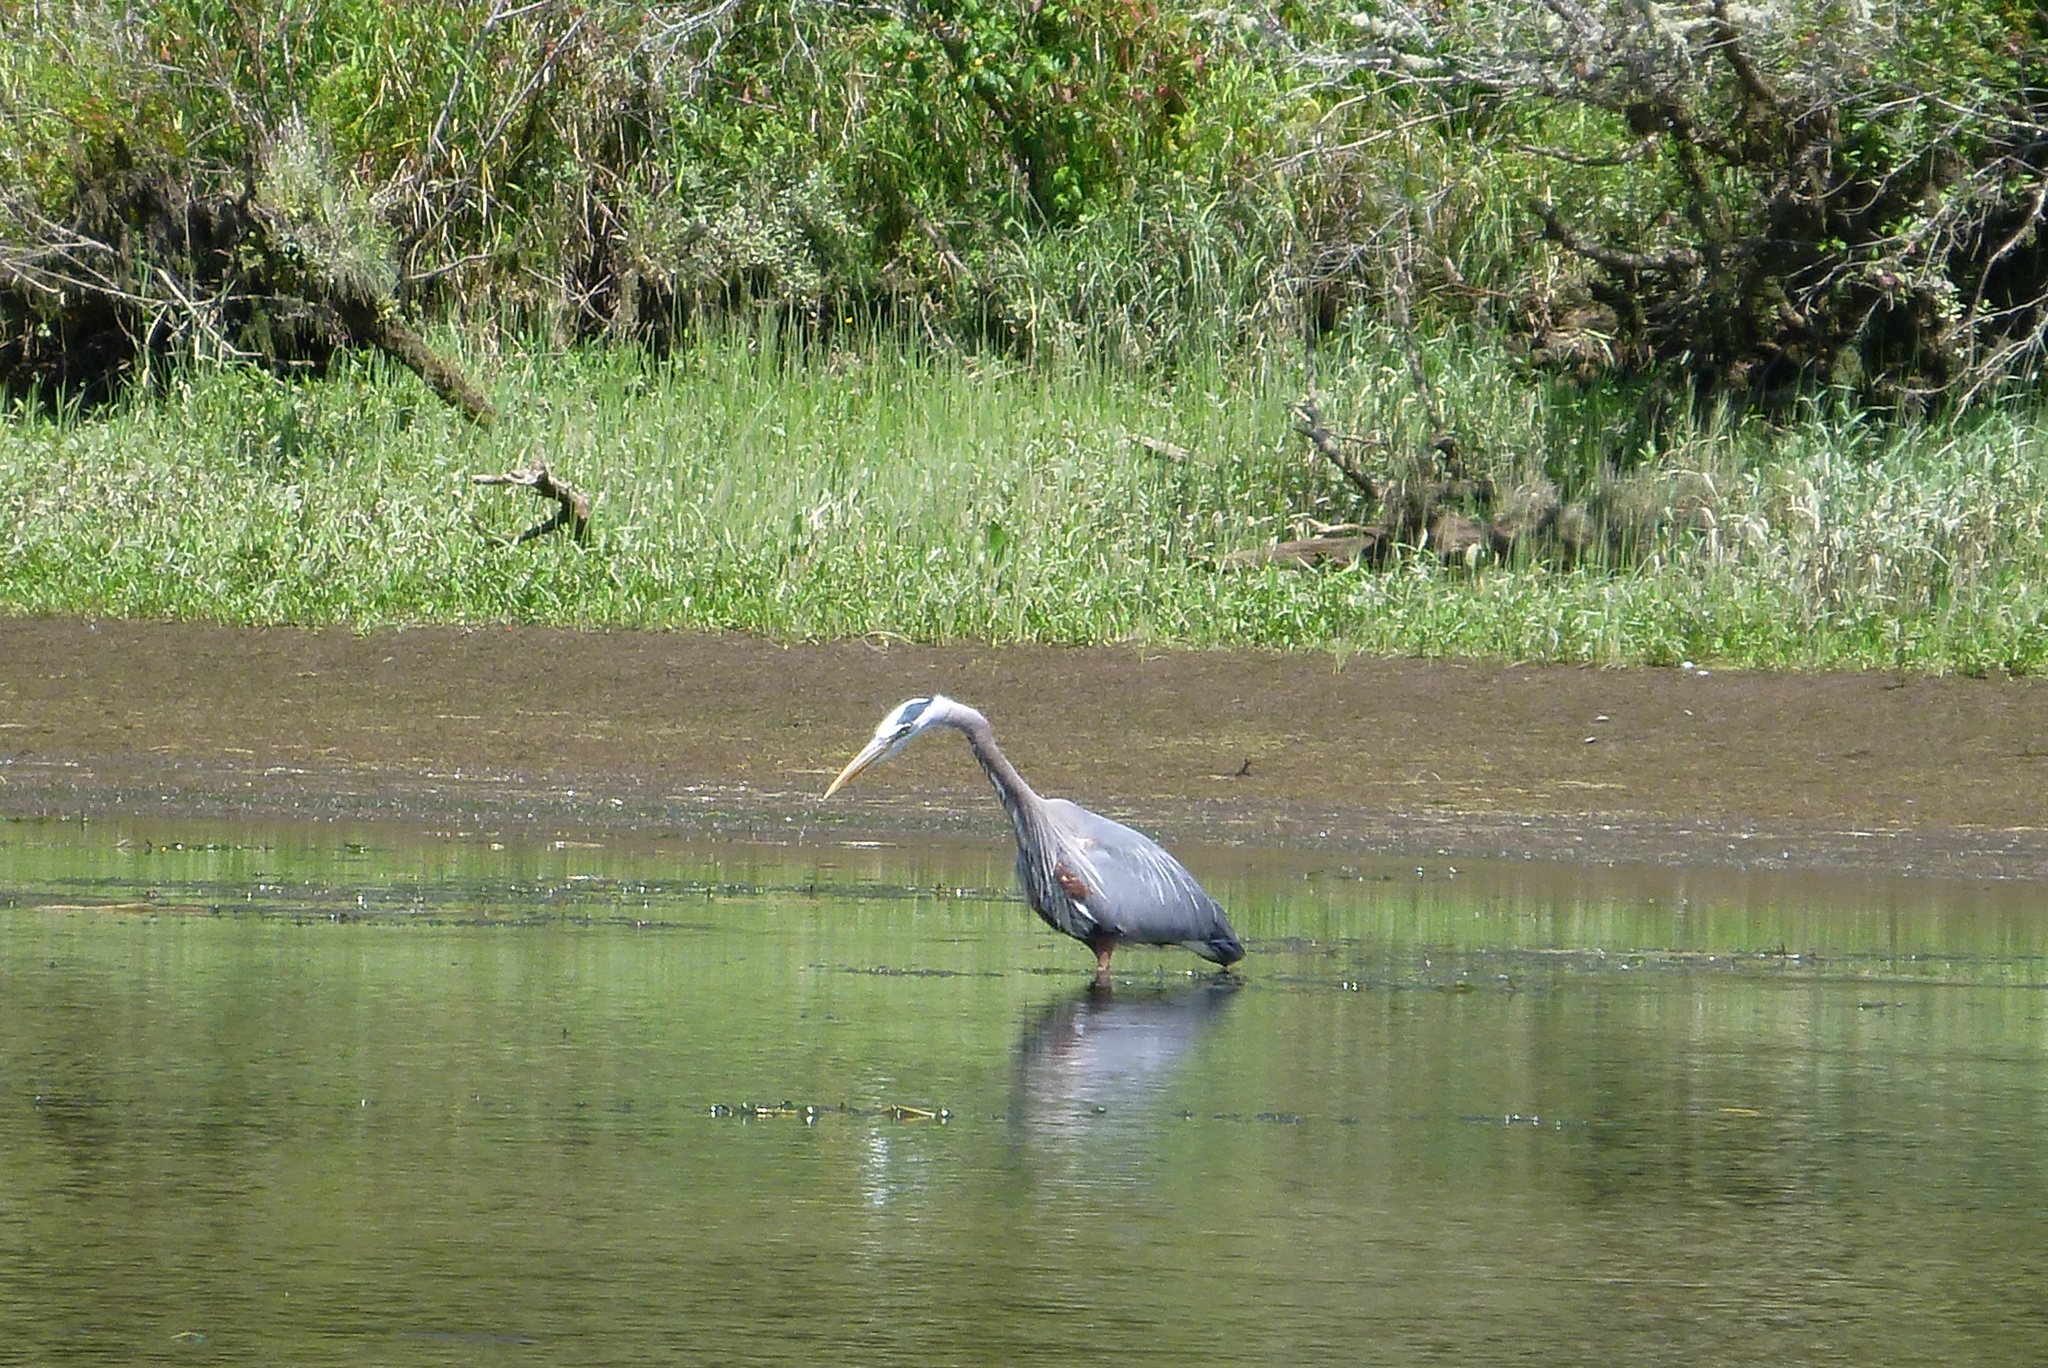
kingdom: Animalia
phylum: Chordata
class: Aves
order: Pelecaniformes
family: Ardeidae
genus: Ardea
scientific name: Ardea herodias
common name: Great blue heron
